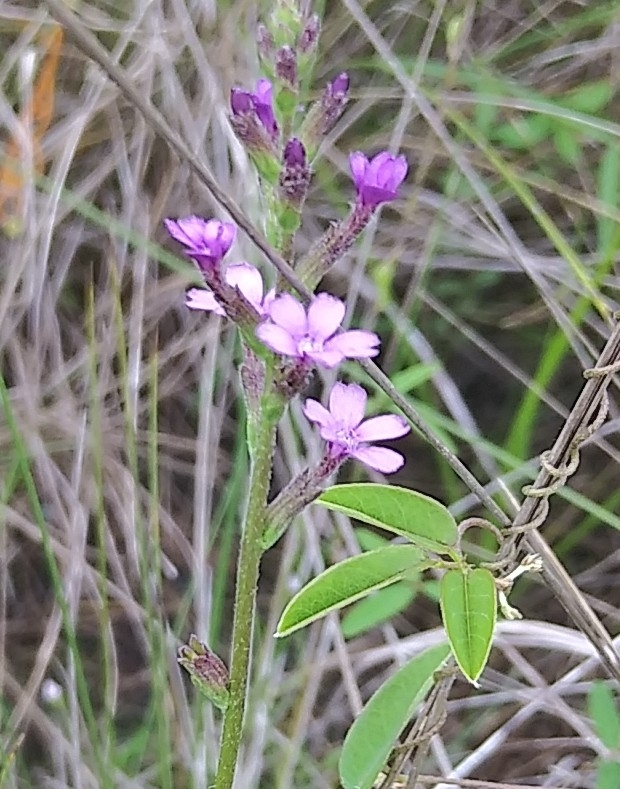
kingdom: Plantae
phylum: Tracheophyta
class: Magnoliopsida
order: Lamiales
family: Orobanchaceae
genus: Buchnera
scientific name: Buchnera floridana
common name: Florida bluehearts
